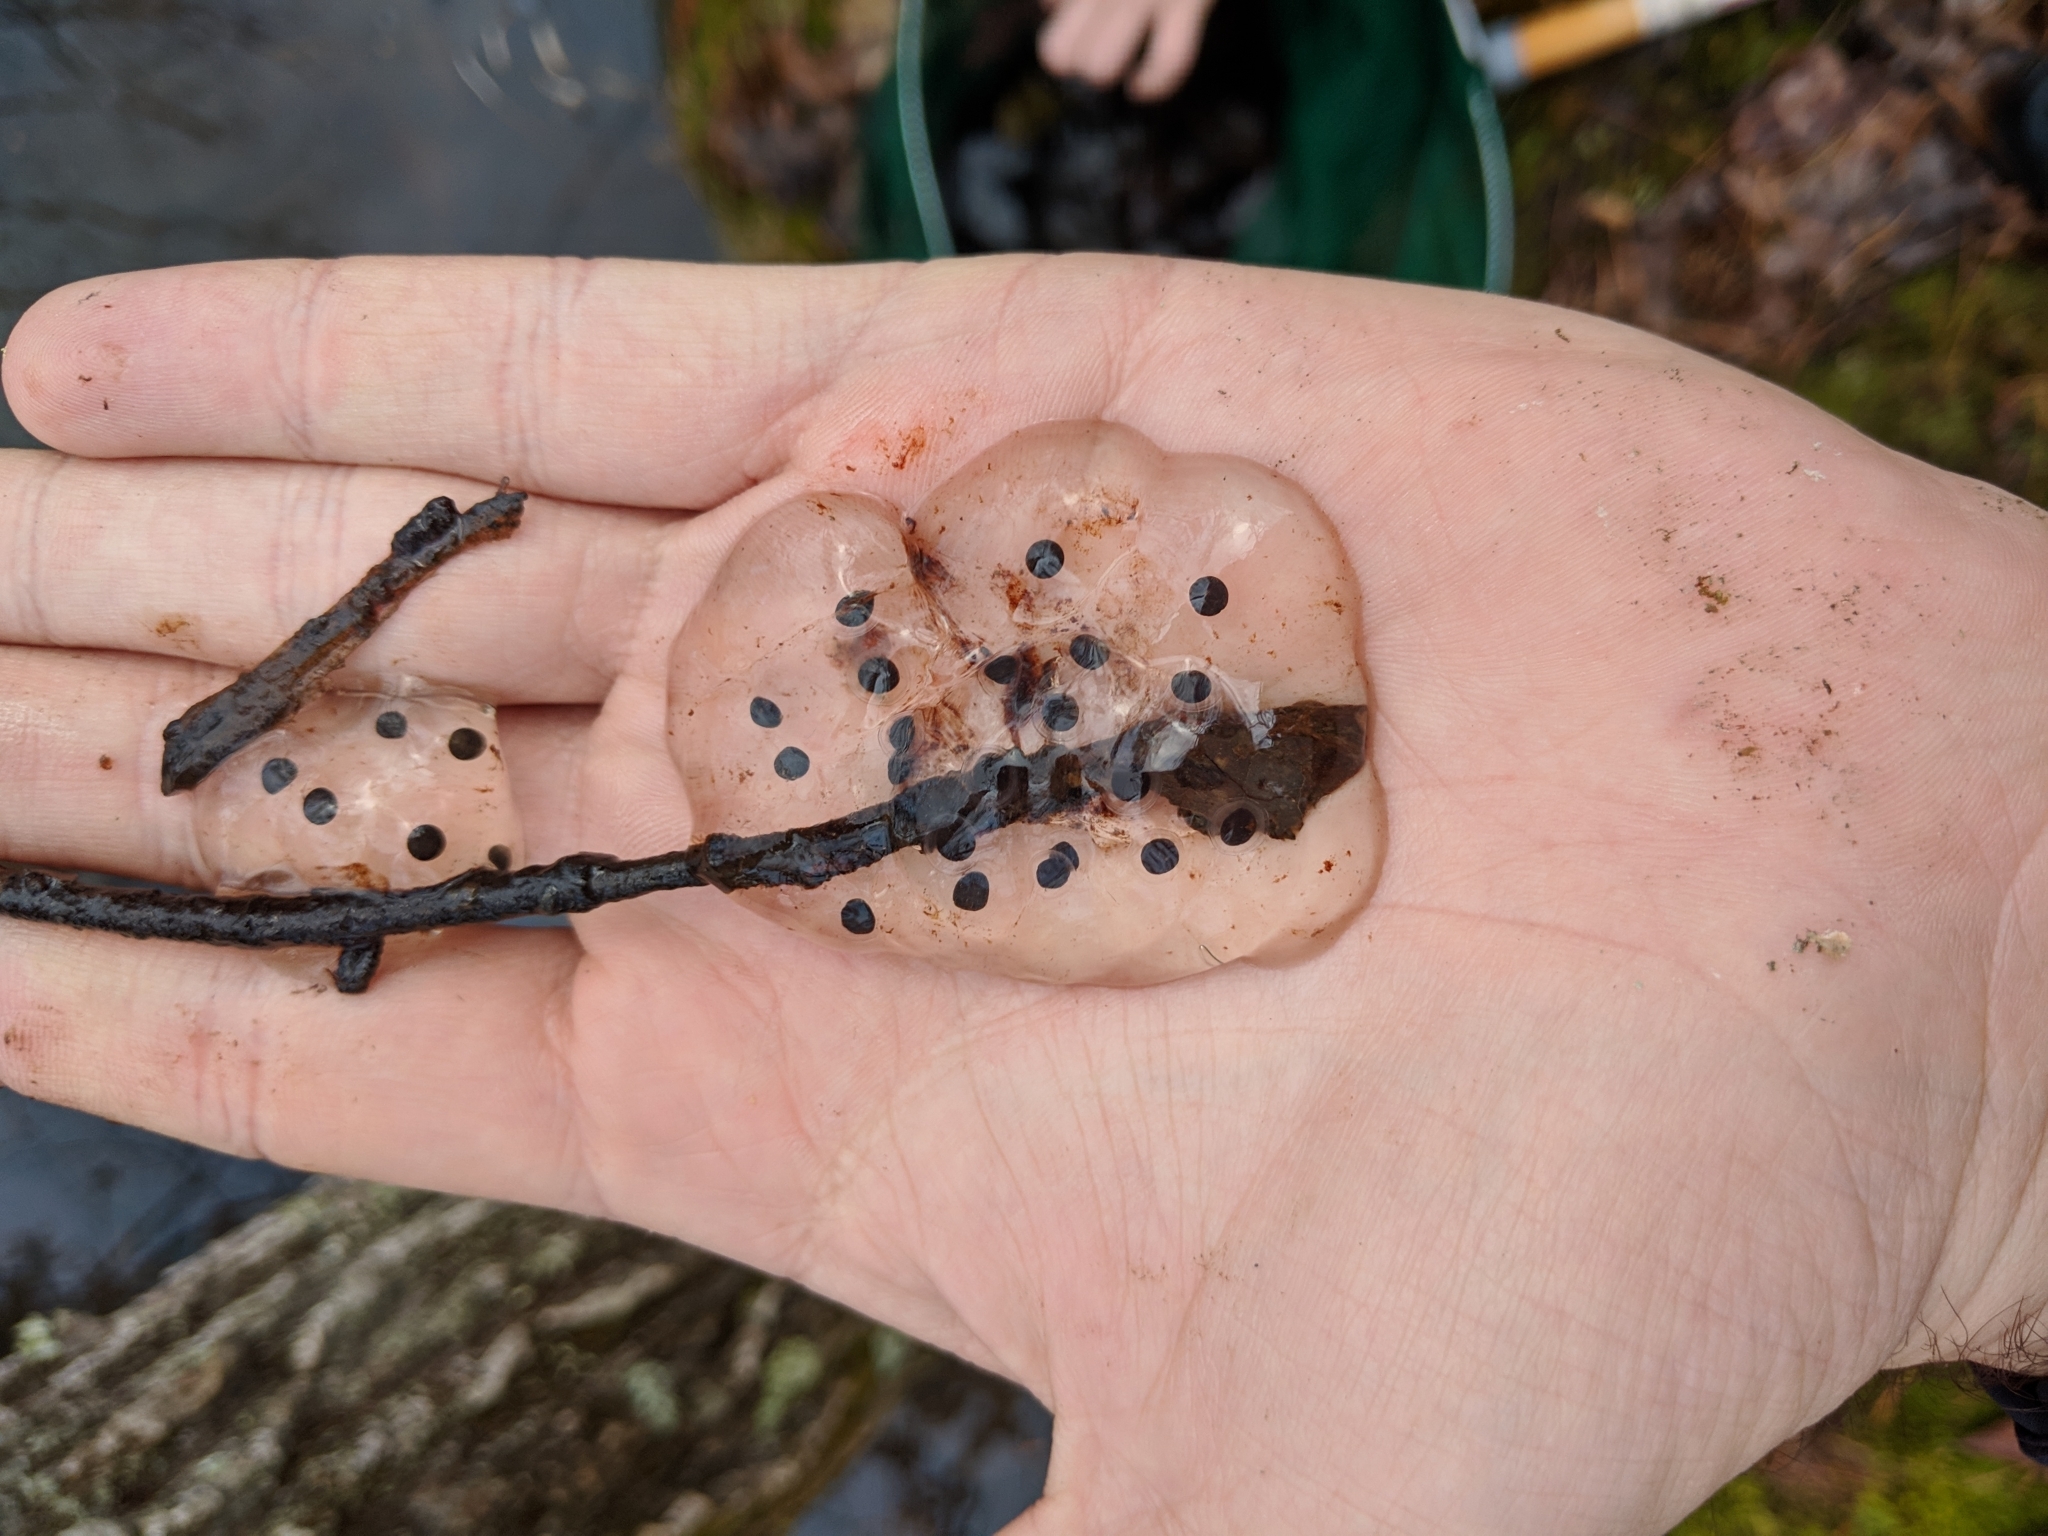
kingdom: Animalia
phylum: Chordata
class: Amphibia
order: Caudata
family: Ambystomatidae
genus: Ambystoma
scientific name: Ambystoma jeffersonianum
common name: Jefferson salamander
